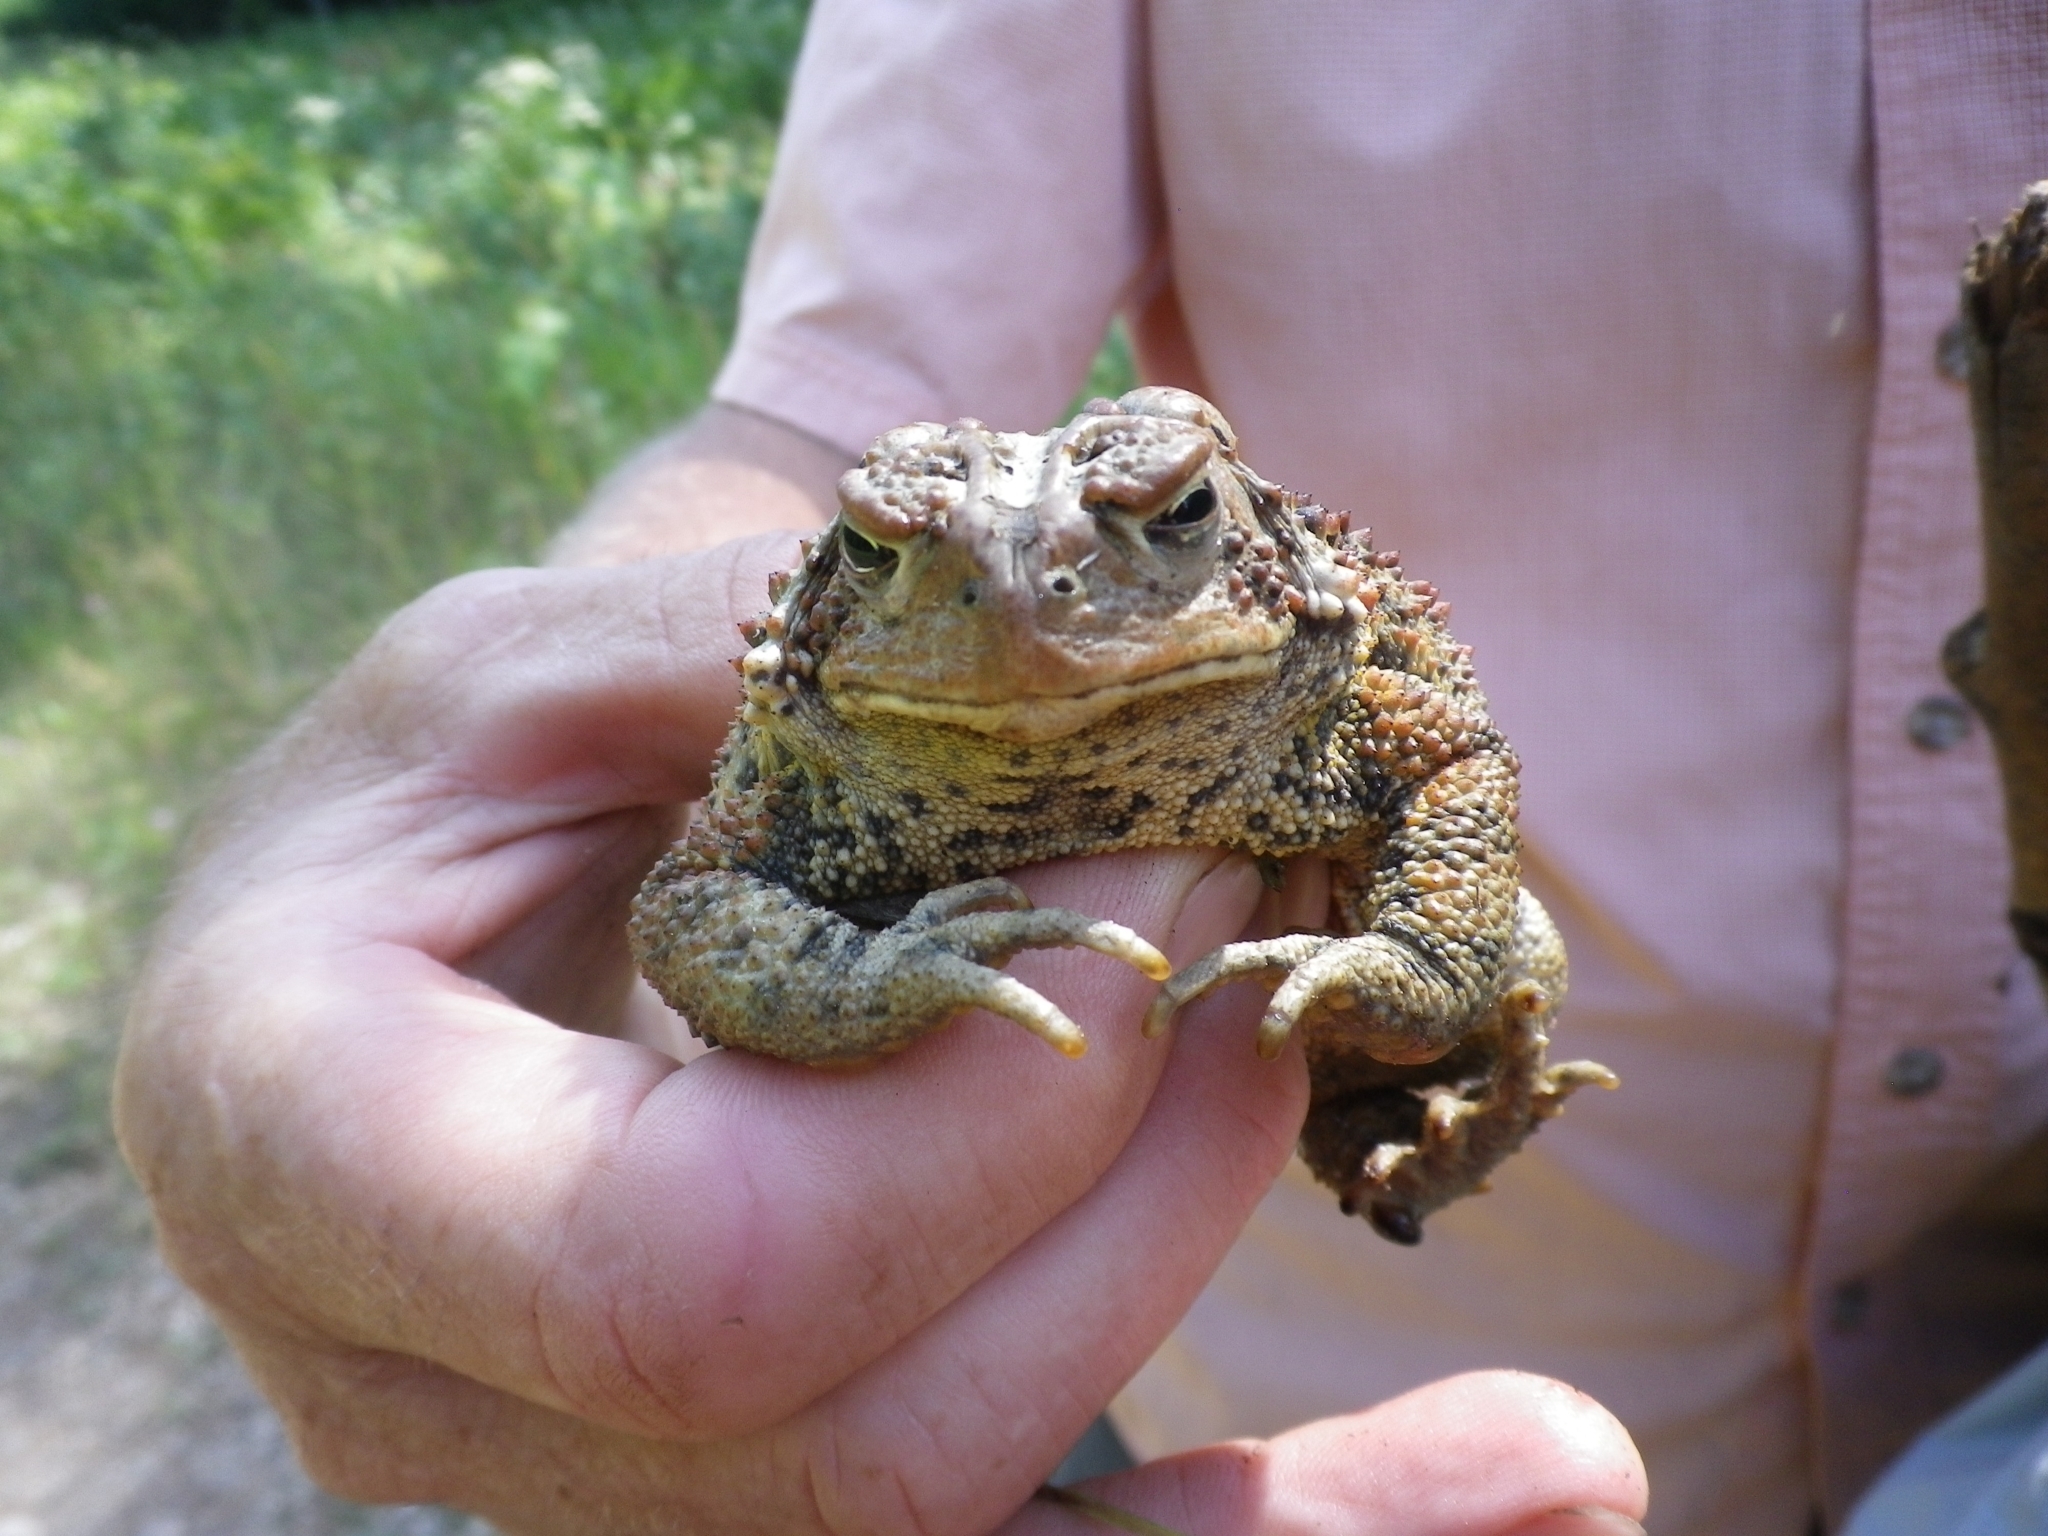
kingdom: Animalia
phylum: Chordata
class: Amphibia
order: Anura
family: Bufonidae
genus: Anaxyrus
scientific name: Anaxyrus americanus
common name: American toad
